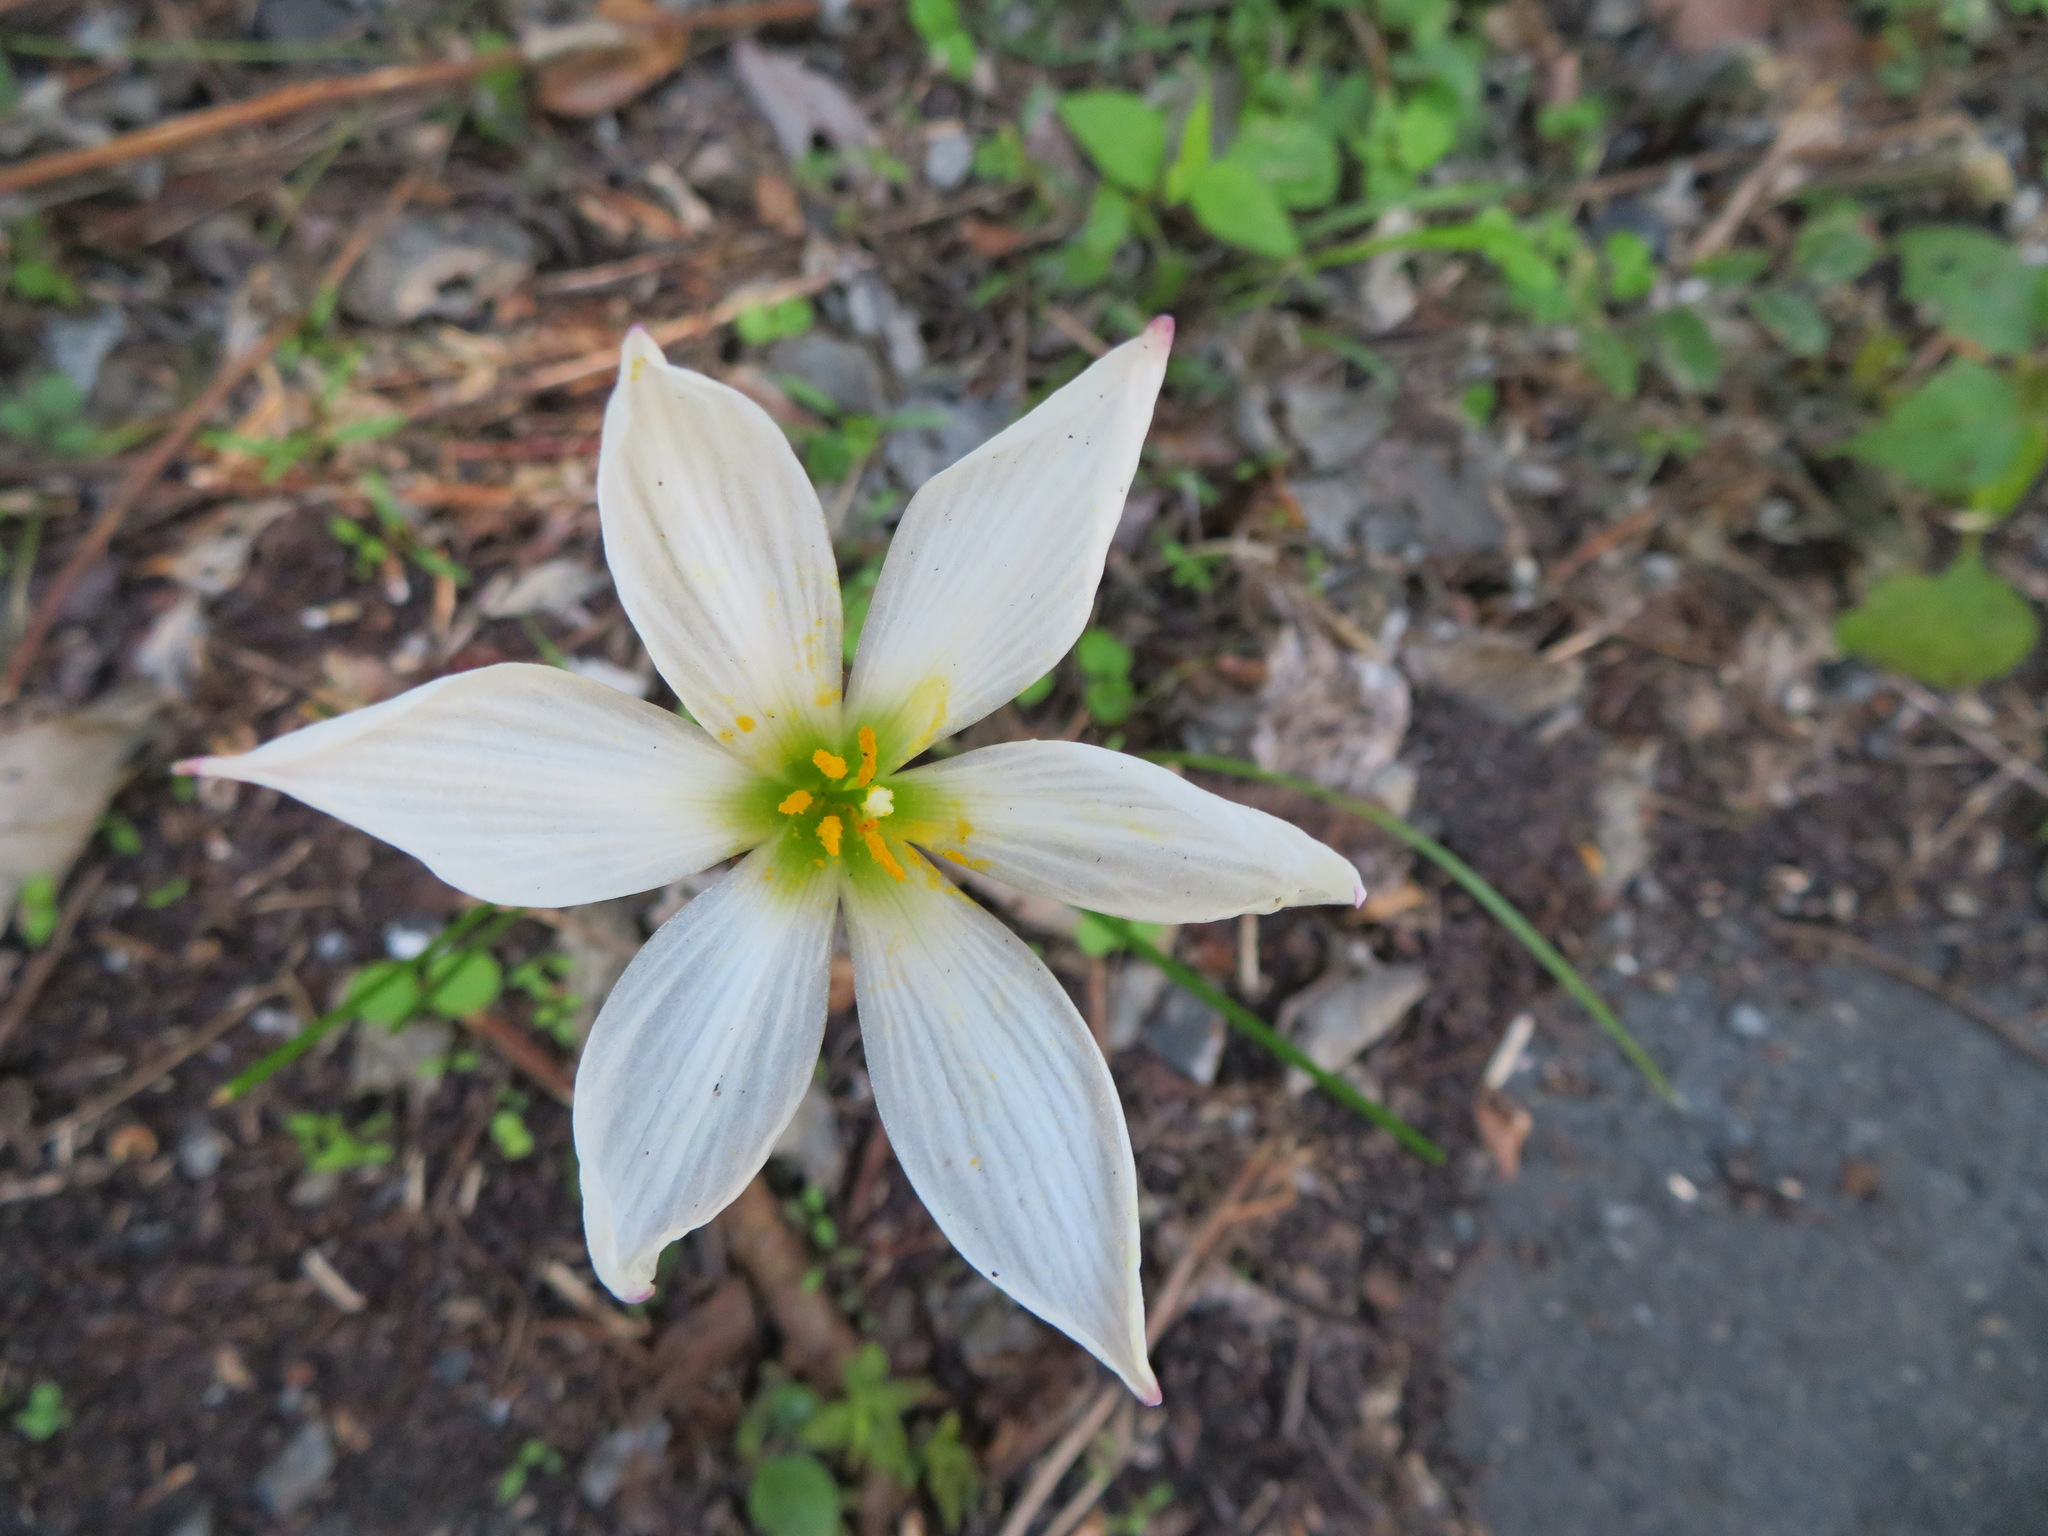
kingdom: Plantae
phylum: Tracheophyta
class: Liliopsida
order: Asparagales
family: Amaryllidaceae
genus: Zephyranthes
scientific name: Zephyranthes candida
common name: Autumn zephyrlily
